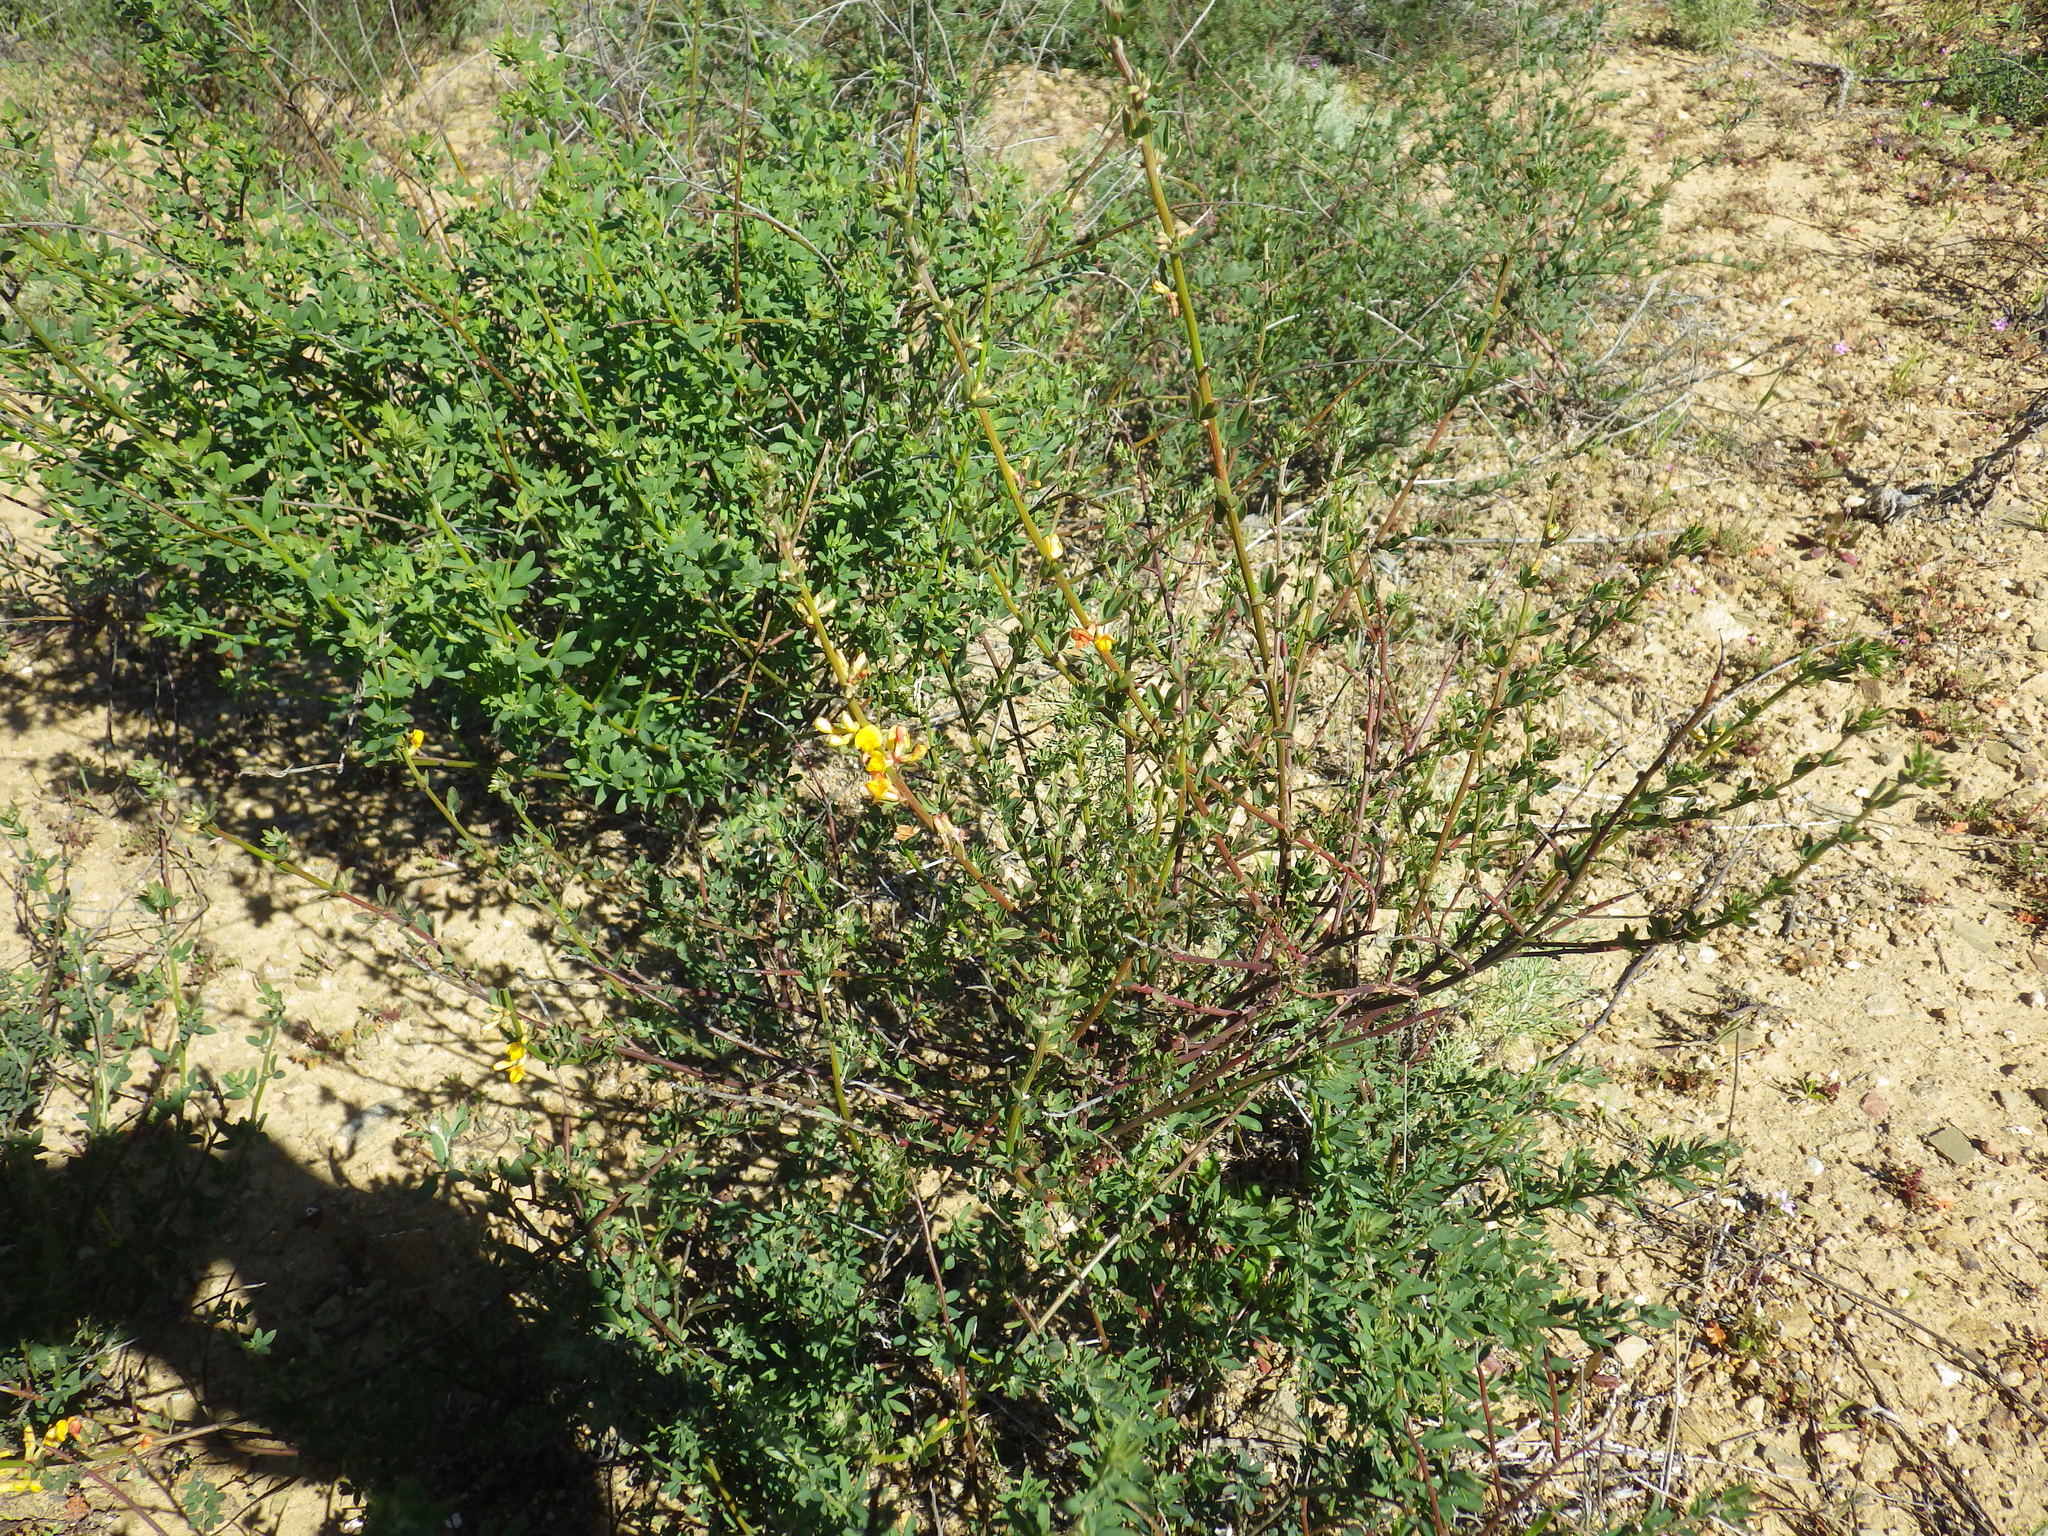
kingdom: Plantae
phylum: Tracheophyta
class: Magnoliopsida
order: Fabales
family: Fabaceae
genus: Acmispon
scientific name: Acmispon glaber
